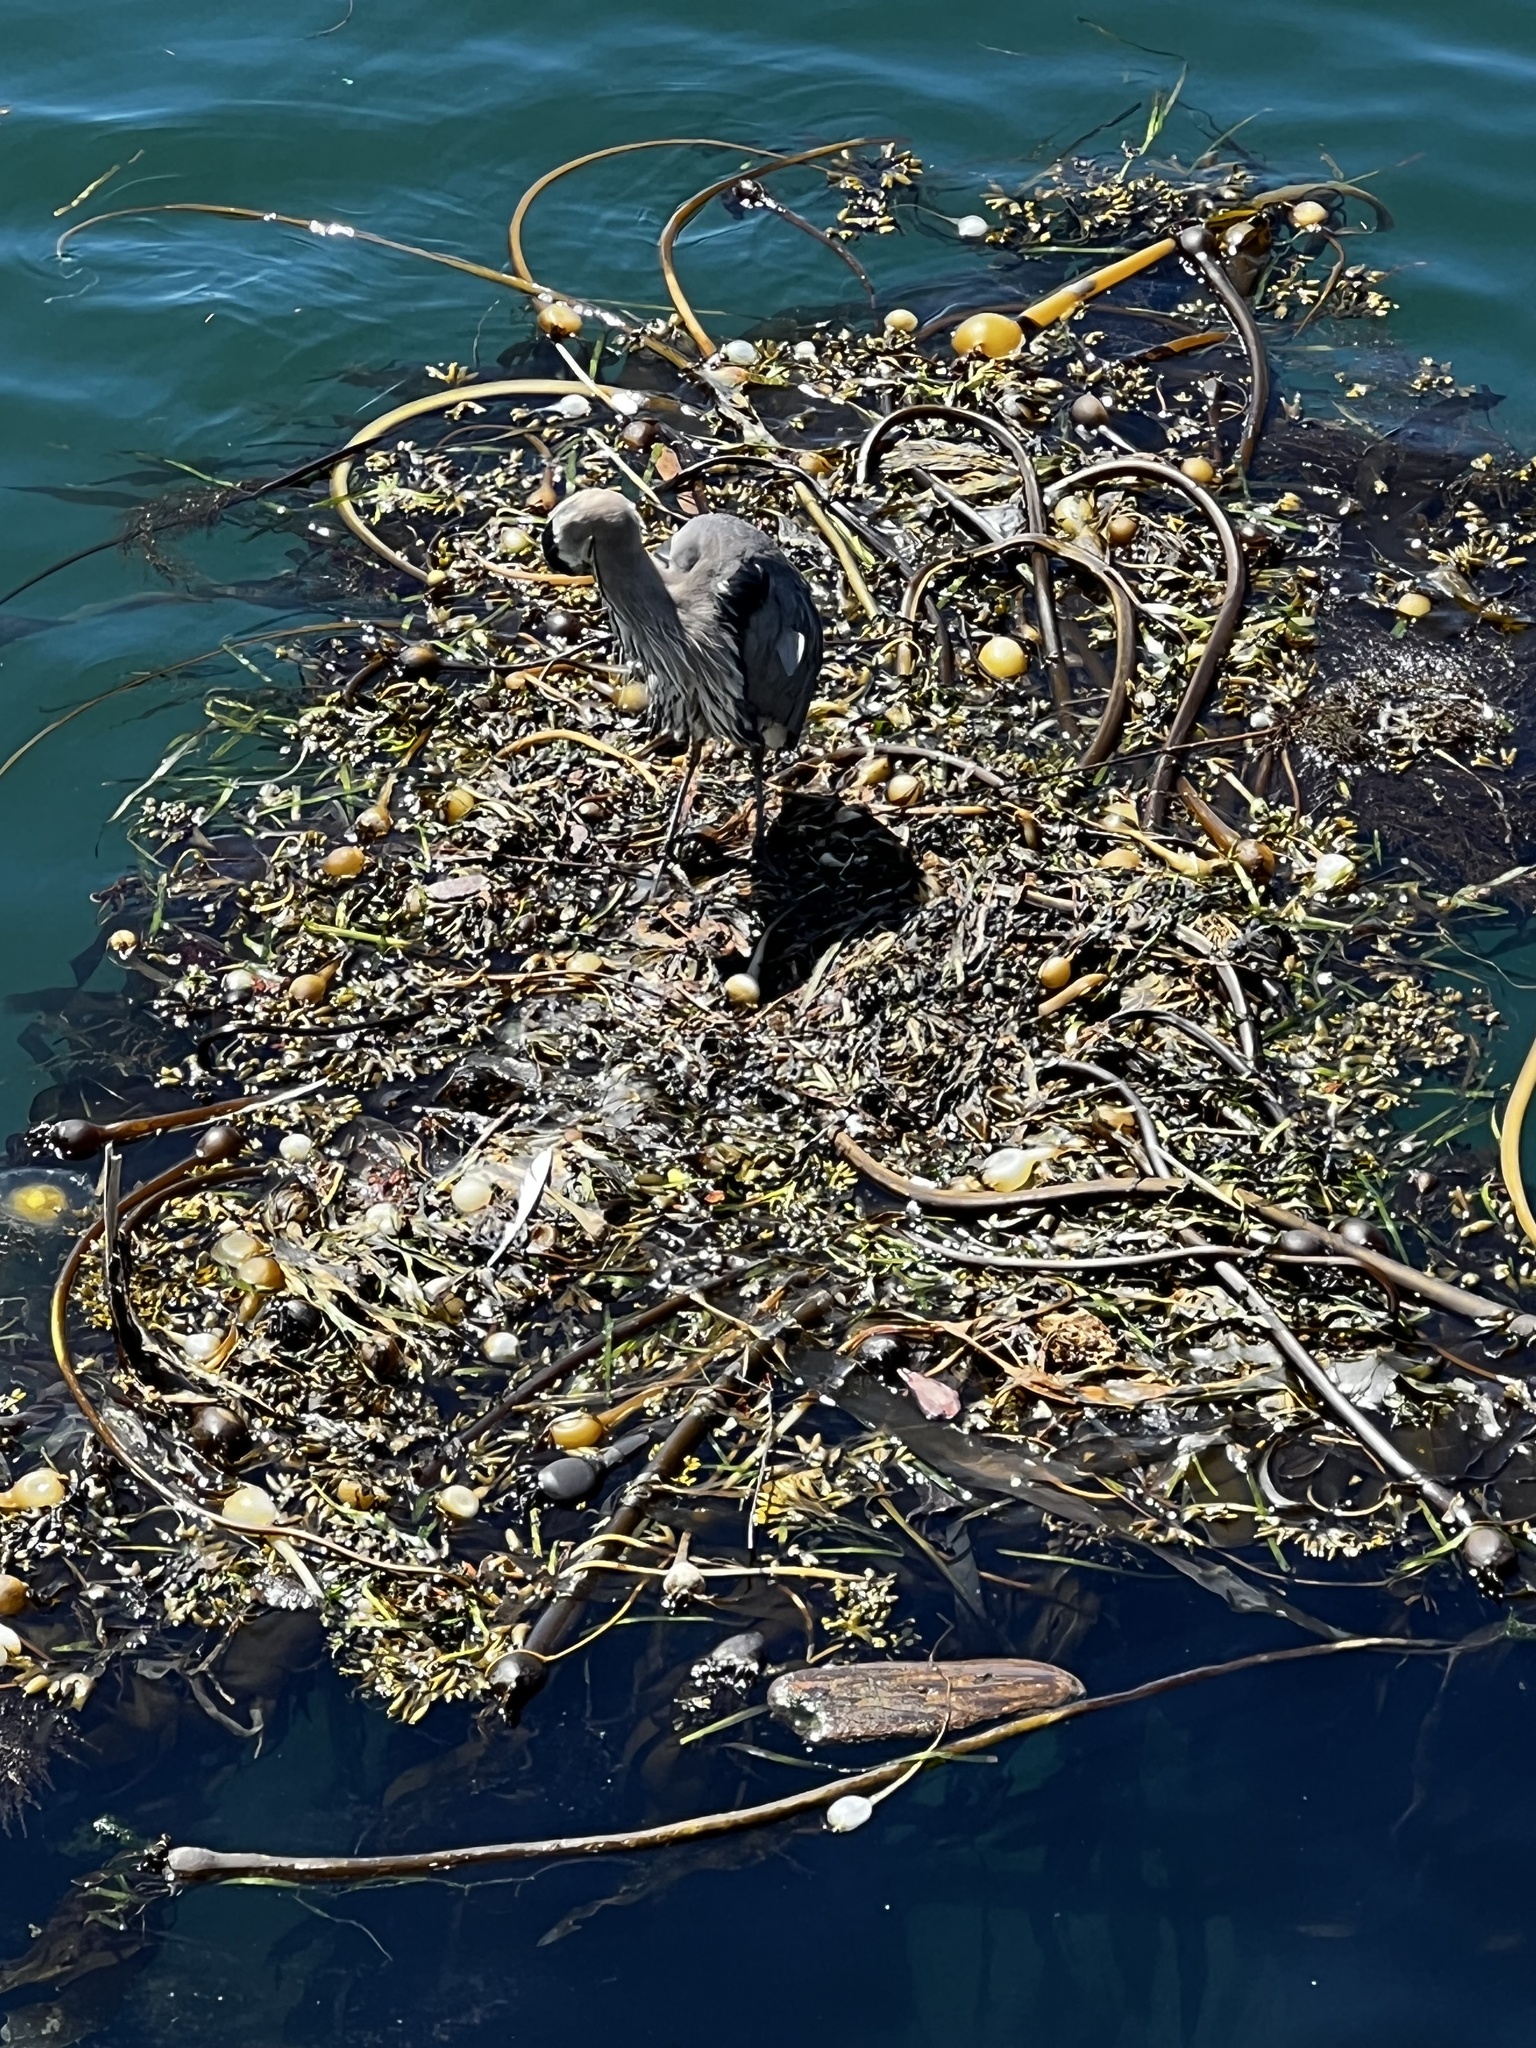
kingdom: Animalia
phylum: Chordata
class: Aves
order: Pelecaniformes
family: Ardeidae
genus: Ardea
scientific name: Ardea herodias
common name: Great blue heron
